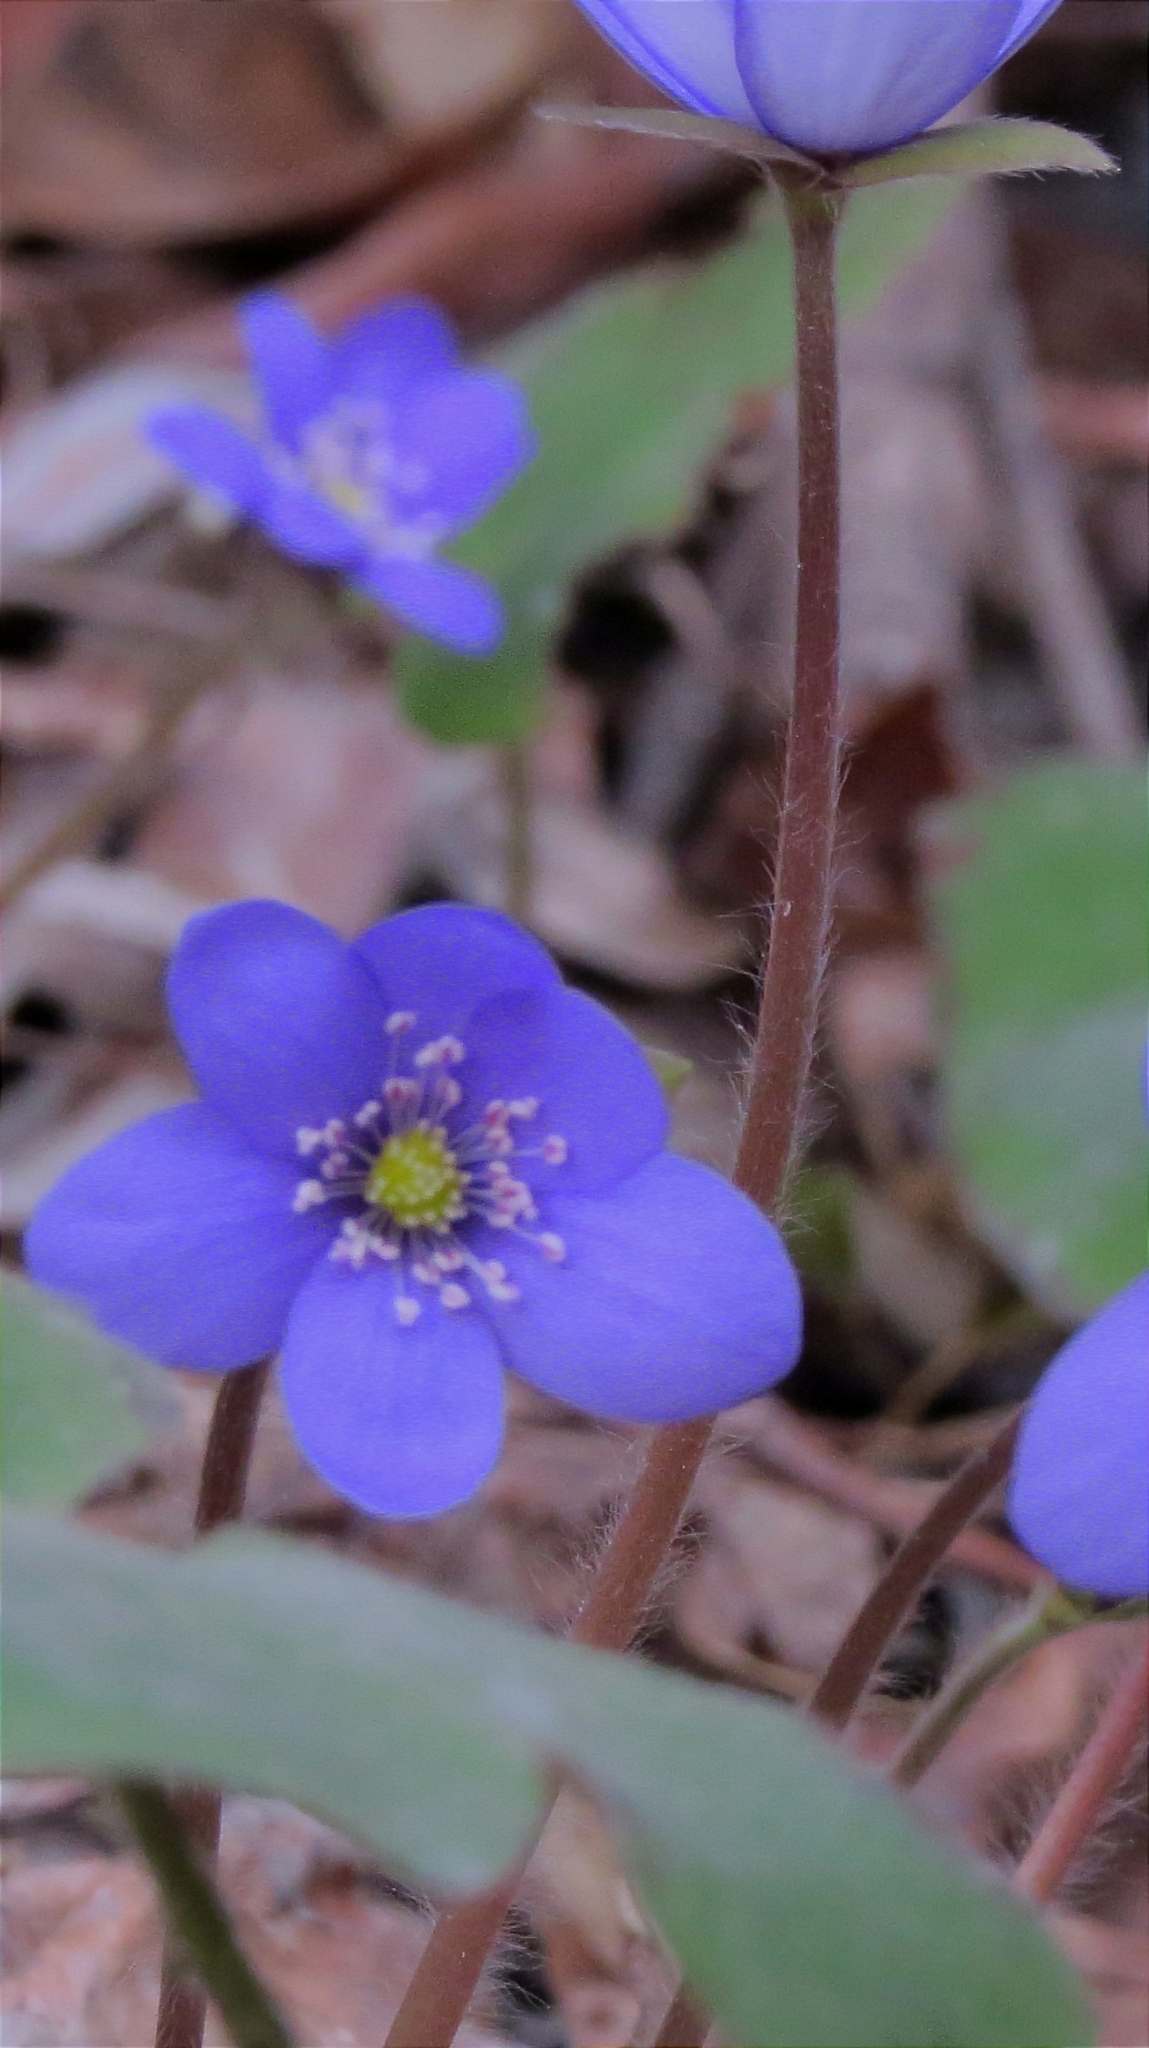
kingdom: Plantae
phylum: Tracheophyta
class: Magnoliopsida
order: Ranunculales
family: Ranunculaceae
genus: Hepatica
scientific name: Hepatica nobilis
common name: Liverleaf
